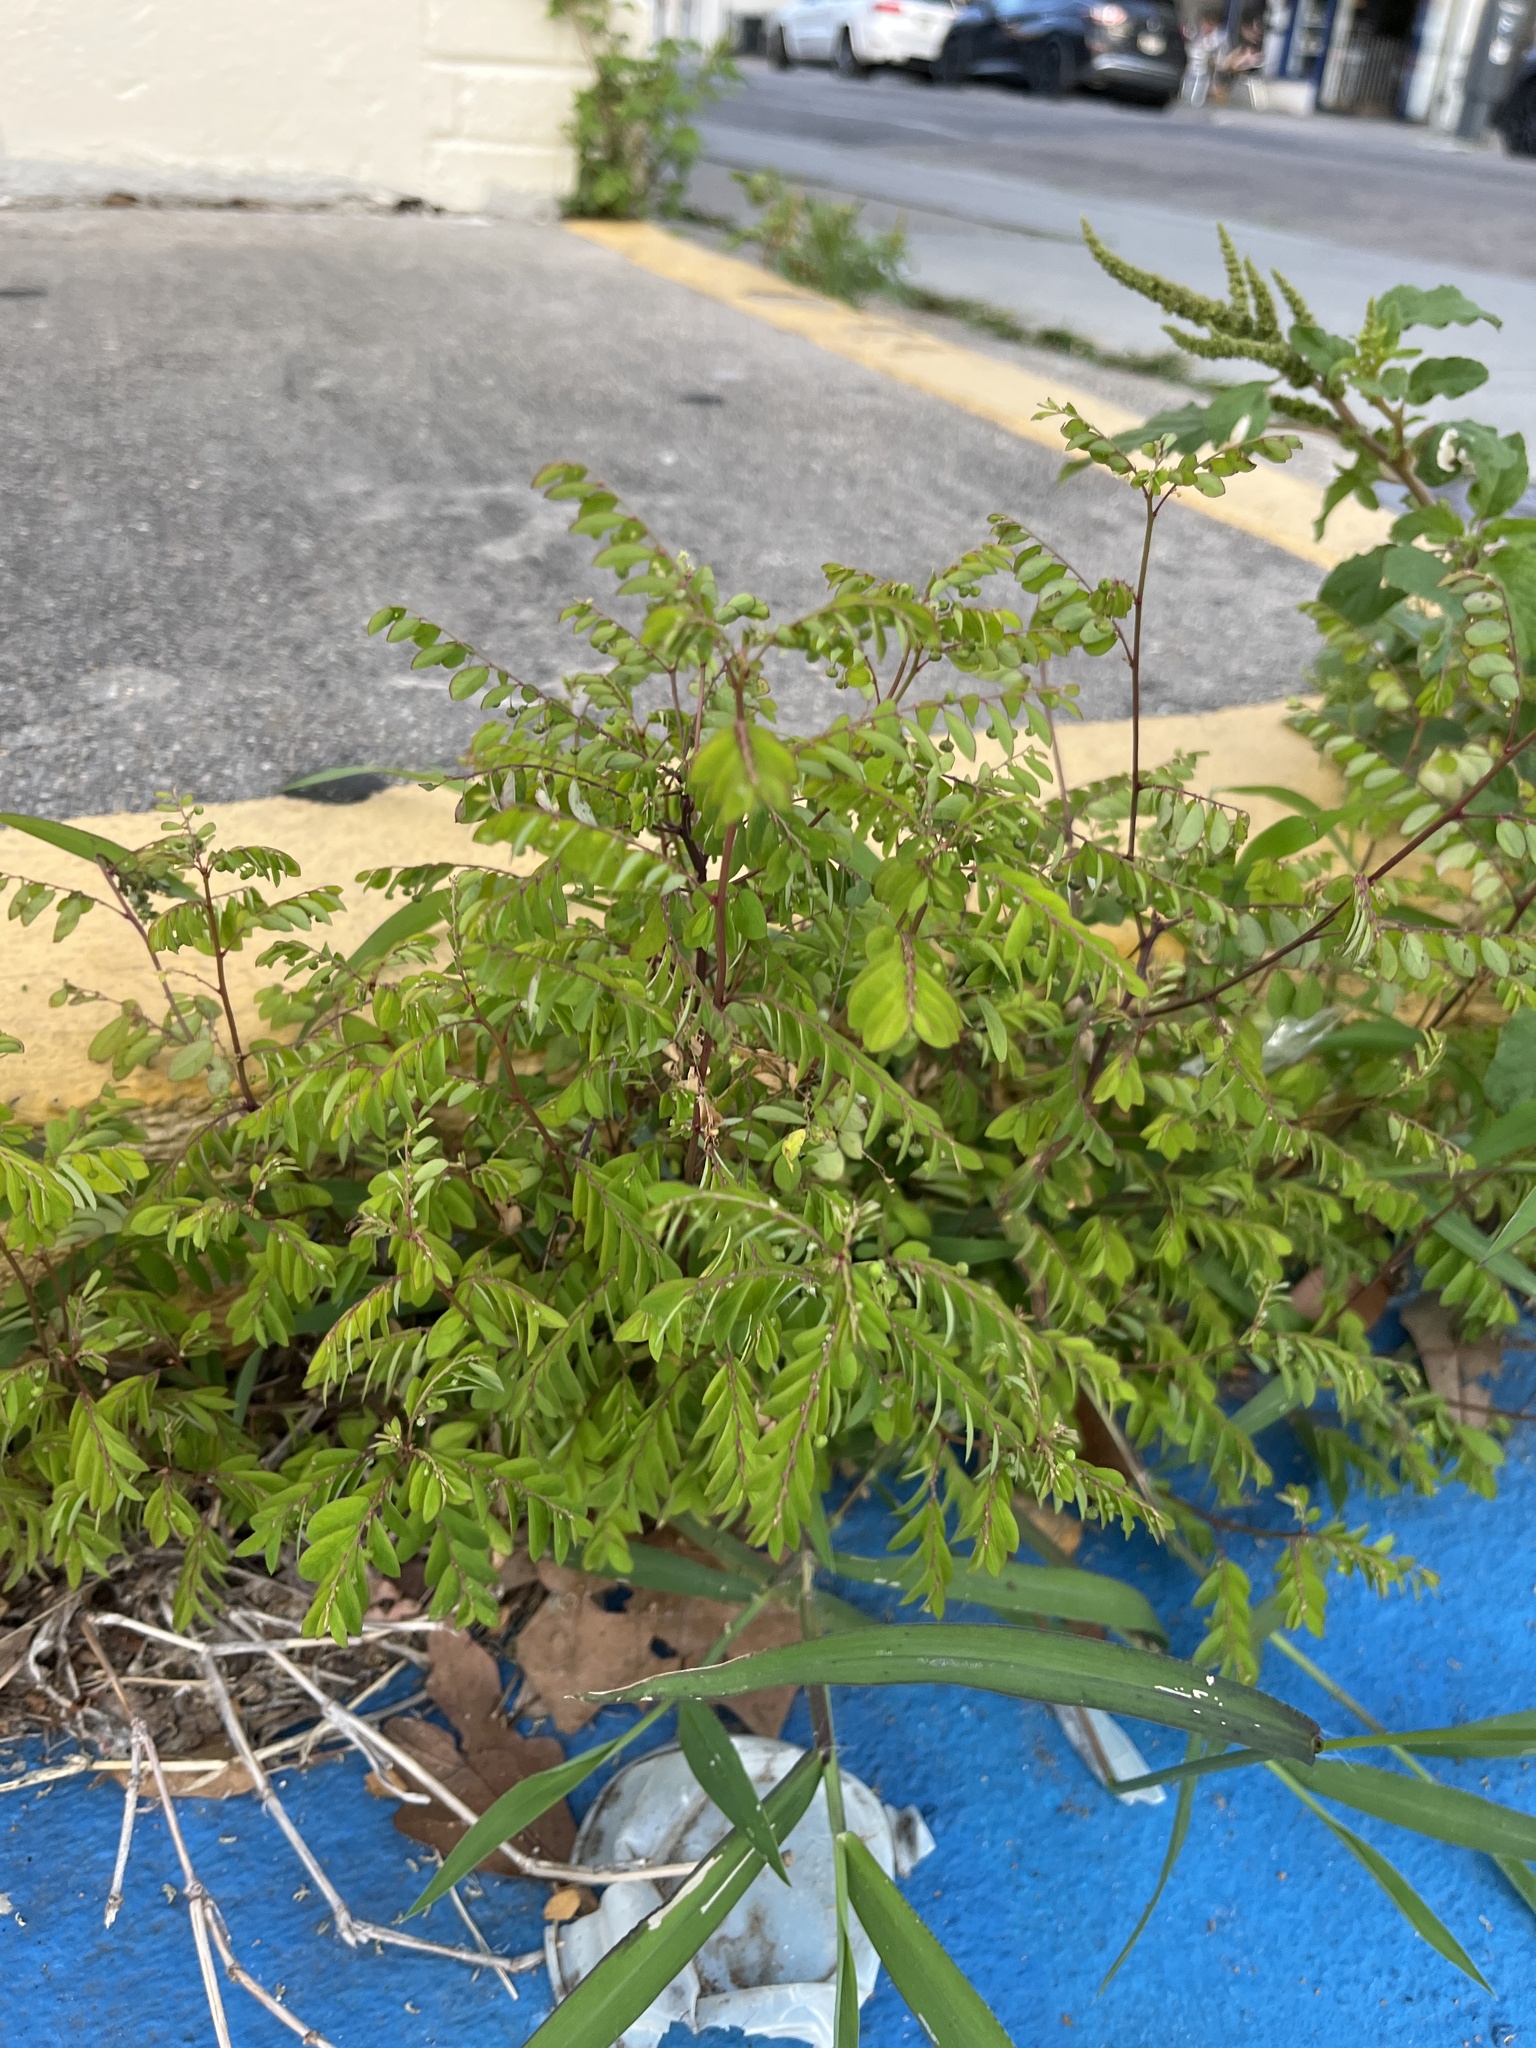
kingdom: Plantae
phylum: Tracheophyta
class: Magnoliopsida
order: Malpighiales
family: Phyllanthaceae
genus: Phyllanthus
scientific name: Phyllanthus tenellus
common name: Mascarene island leaf-flower
